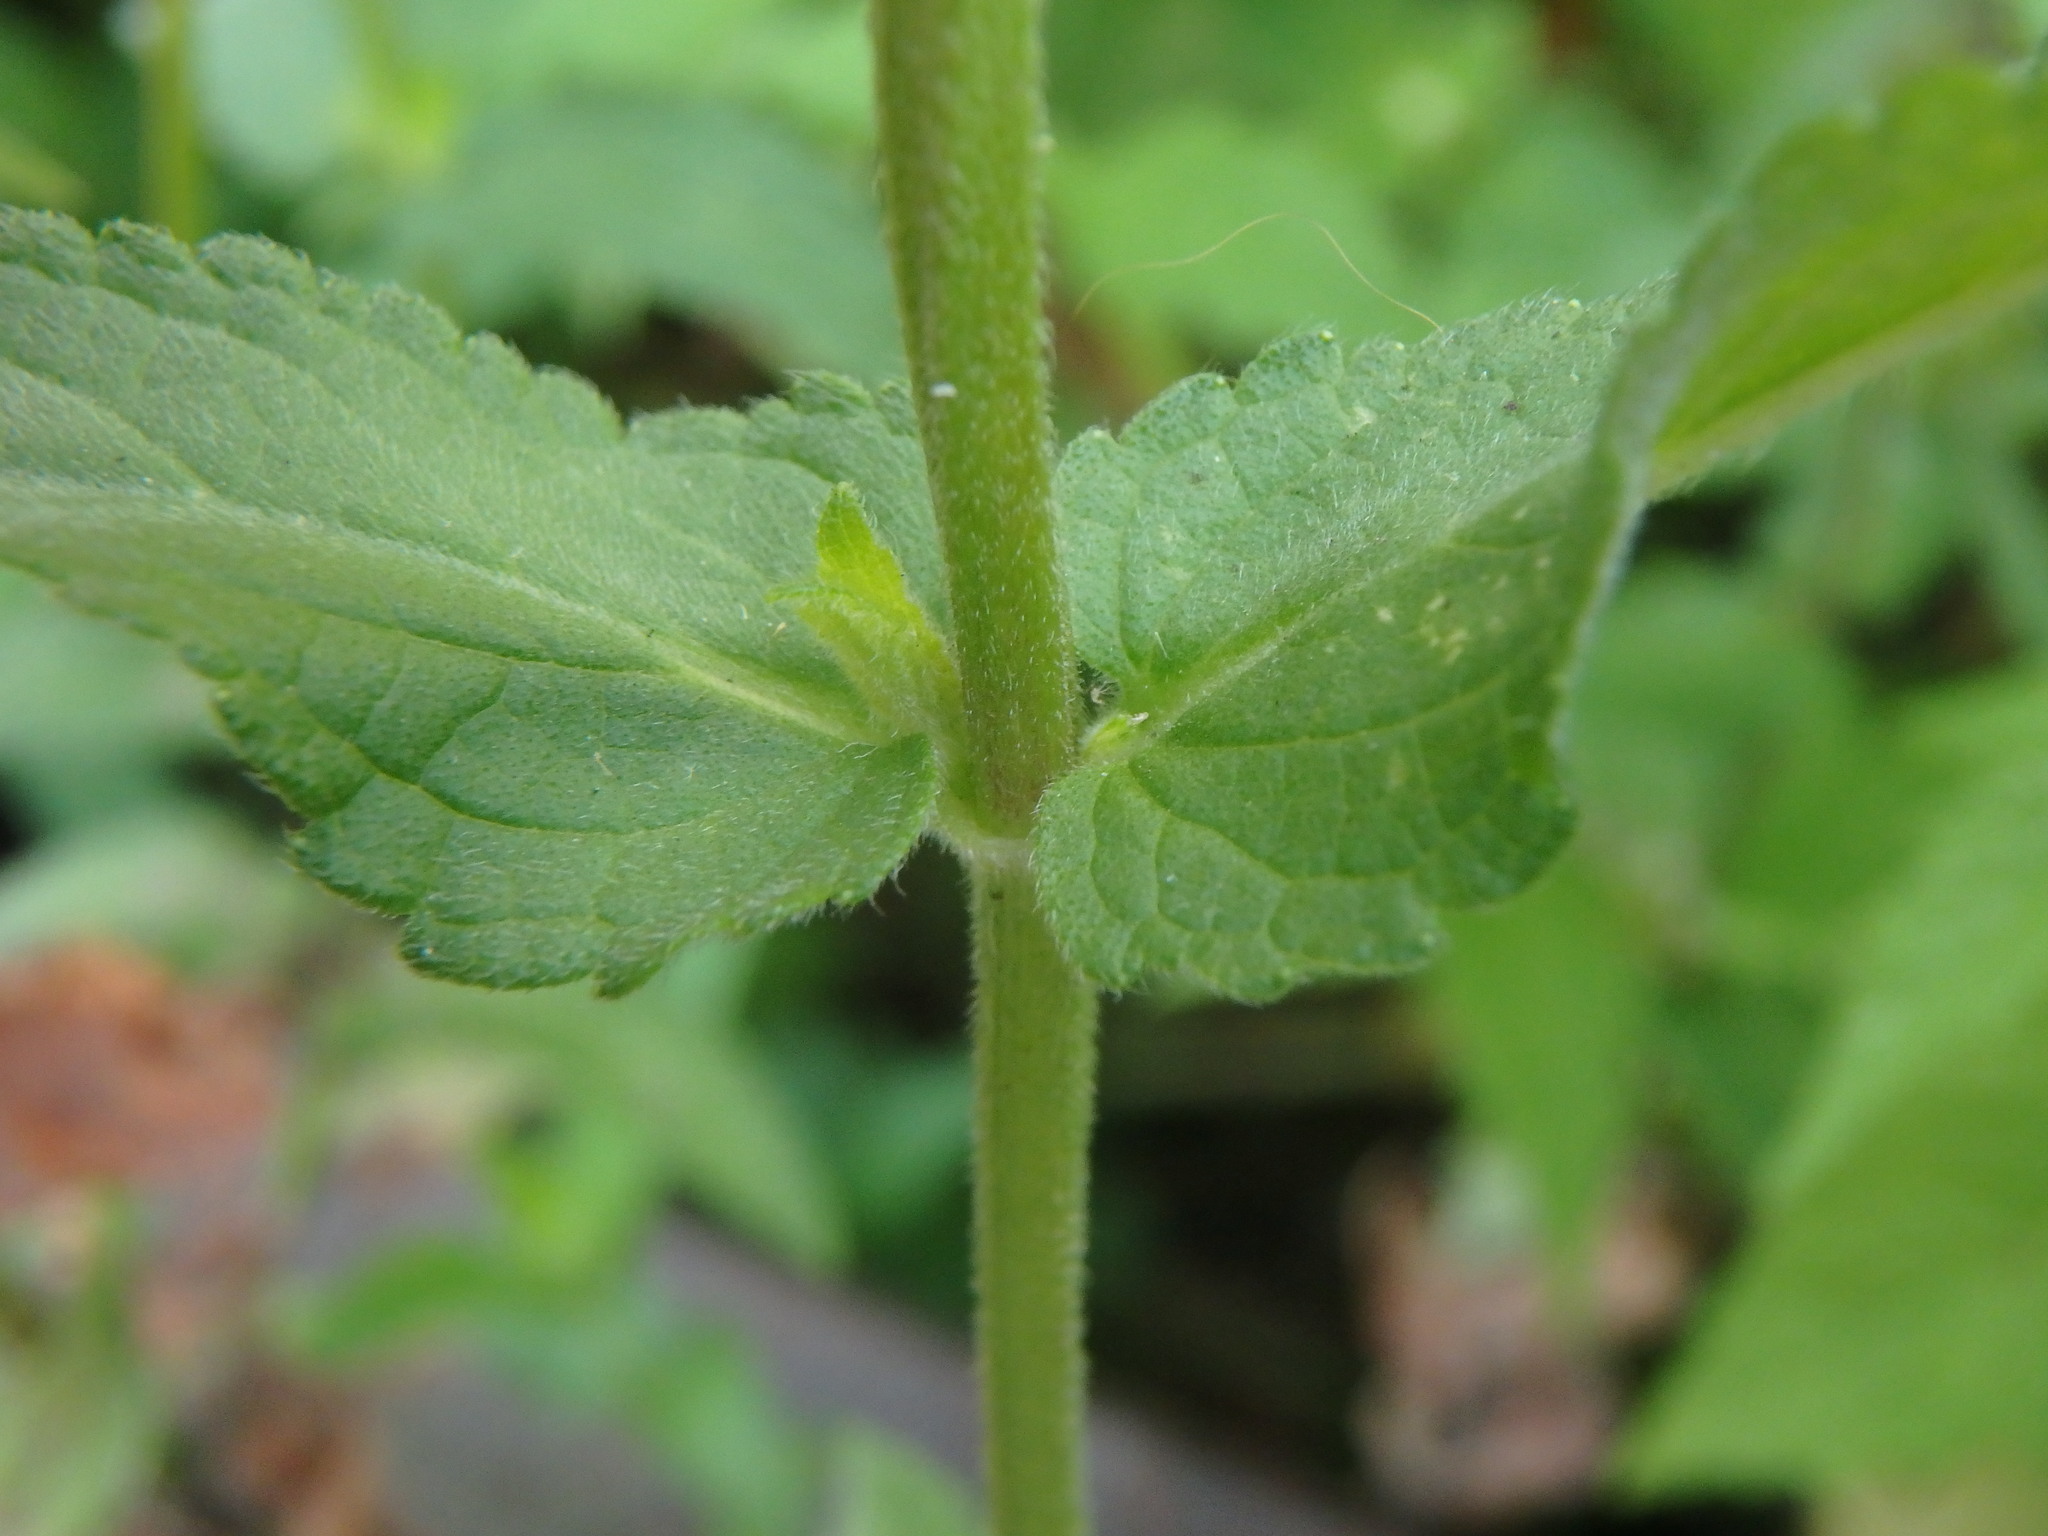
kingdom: Plantae
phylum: Tracheophyta
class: Magnoliopsida
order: Lamiales
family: Lamiaceae
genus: Stachys
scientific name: Stachys palustris
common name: Marsh woundwort
